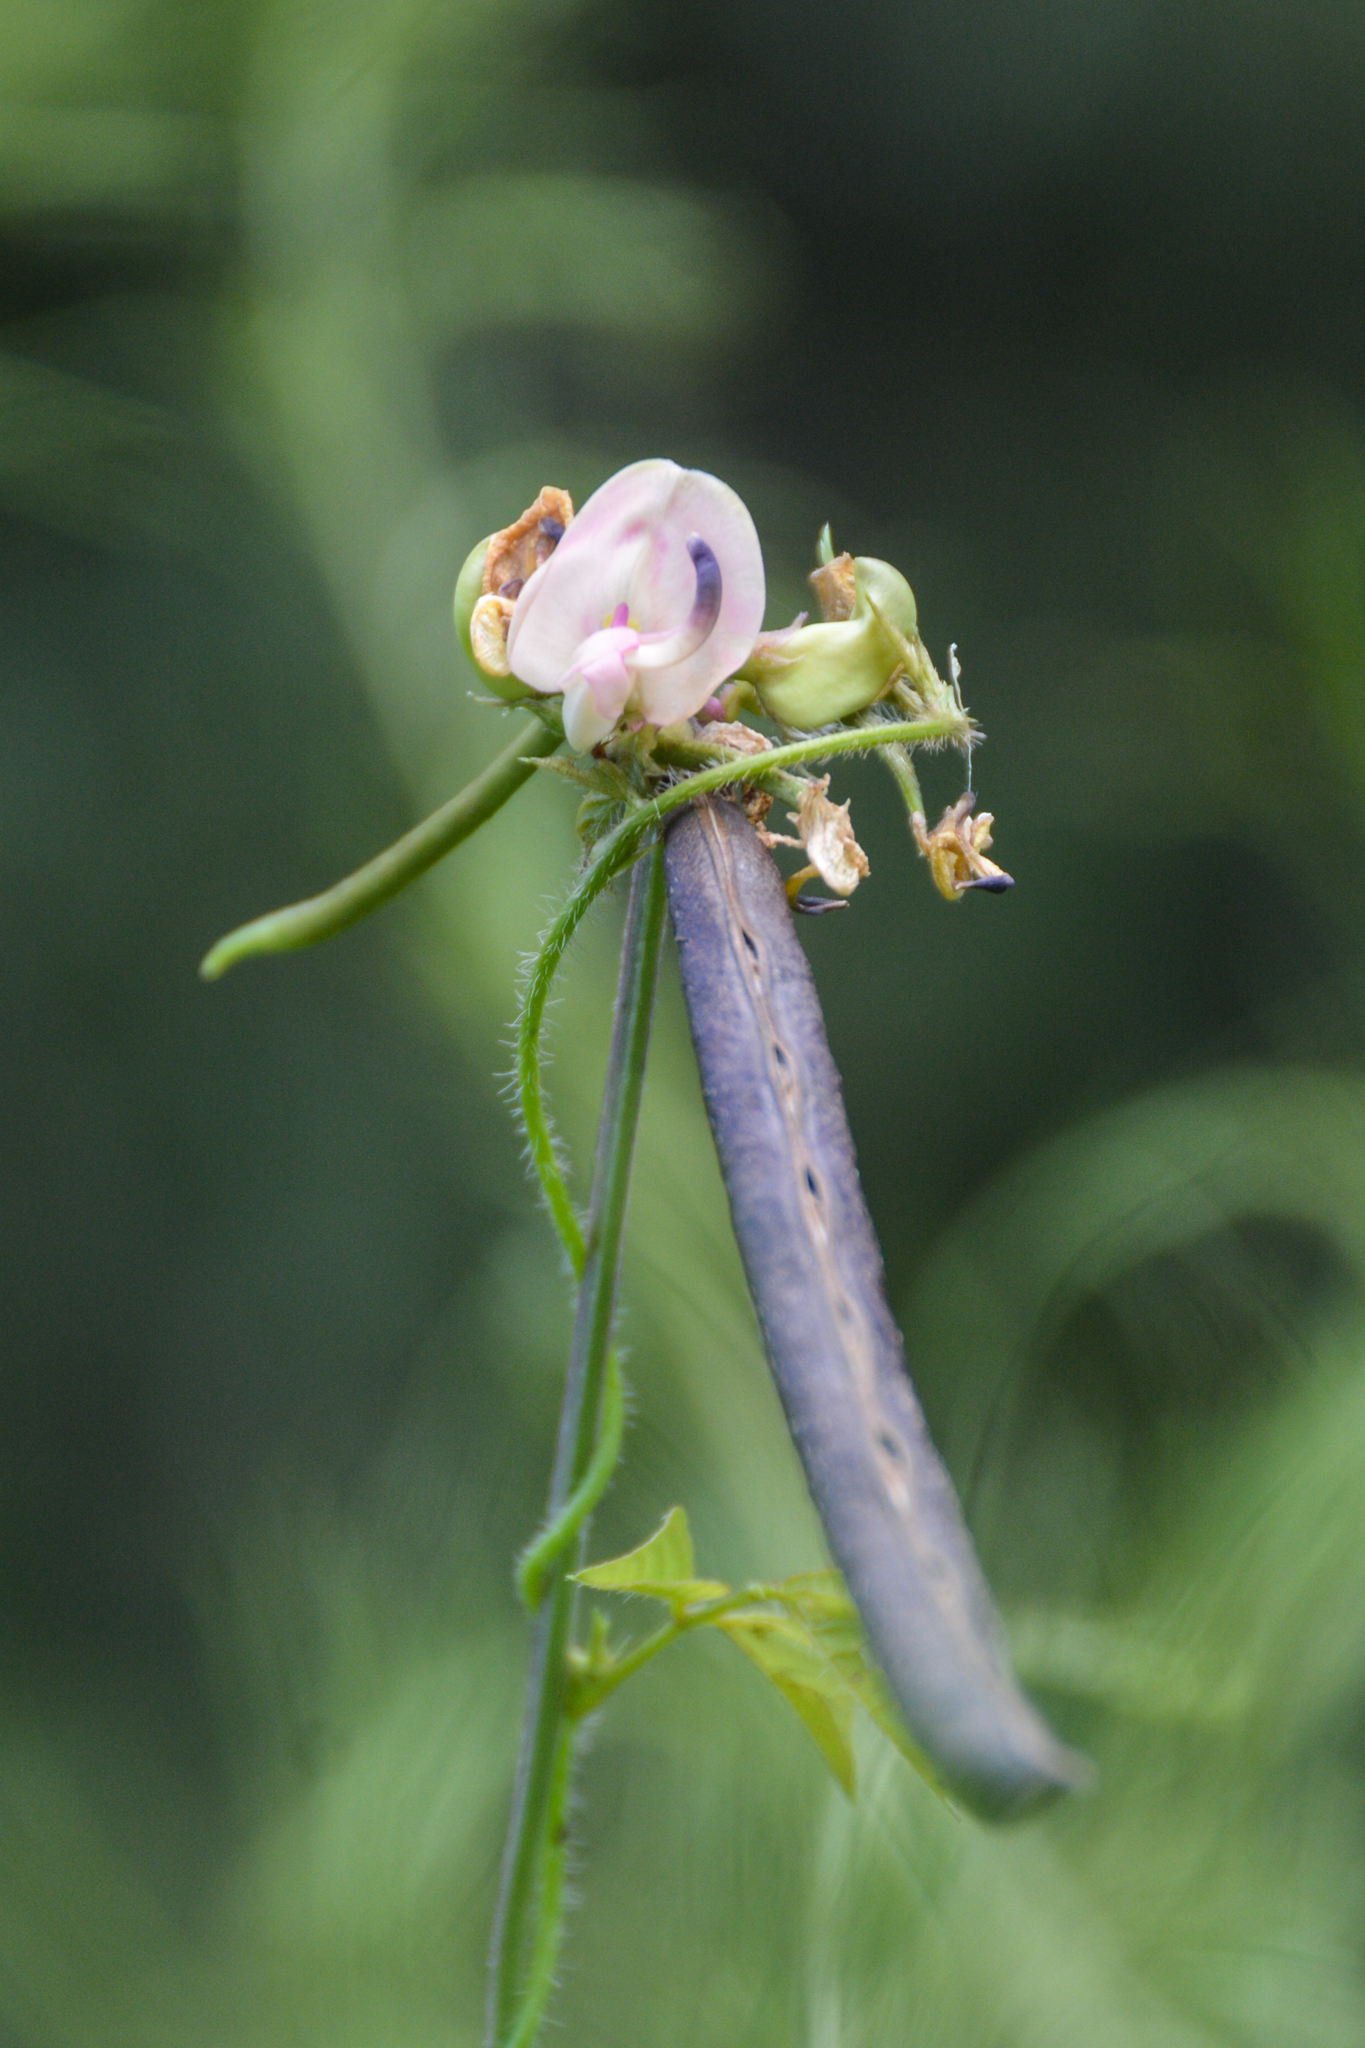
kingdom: Plantae
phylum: Tracheophyta
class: Magnoliopsida
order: Fabales
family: Fabaceae
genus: Strophostyles
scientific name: Strophostyles helvola
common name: Trailing wild bean
